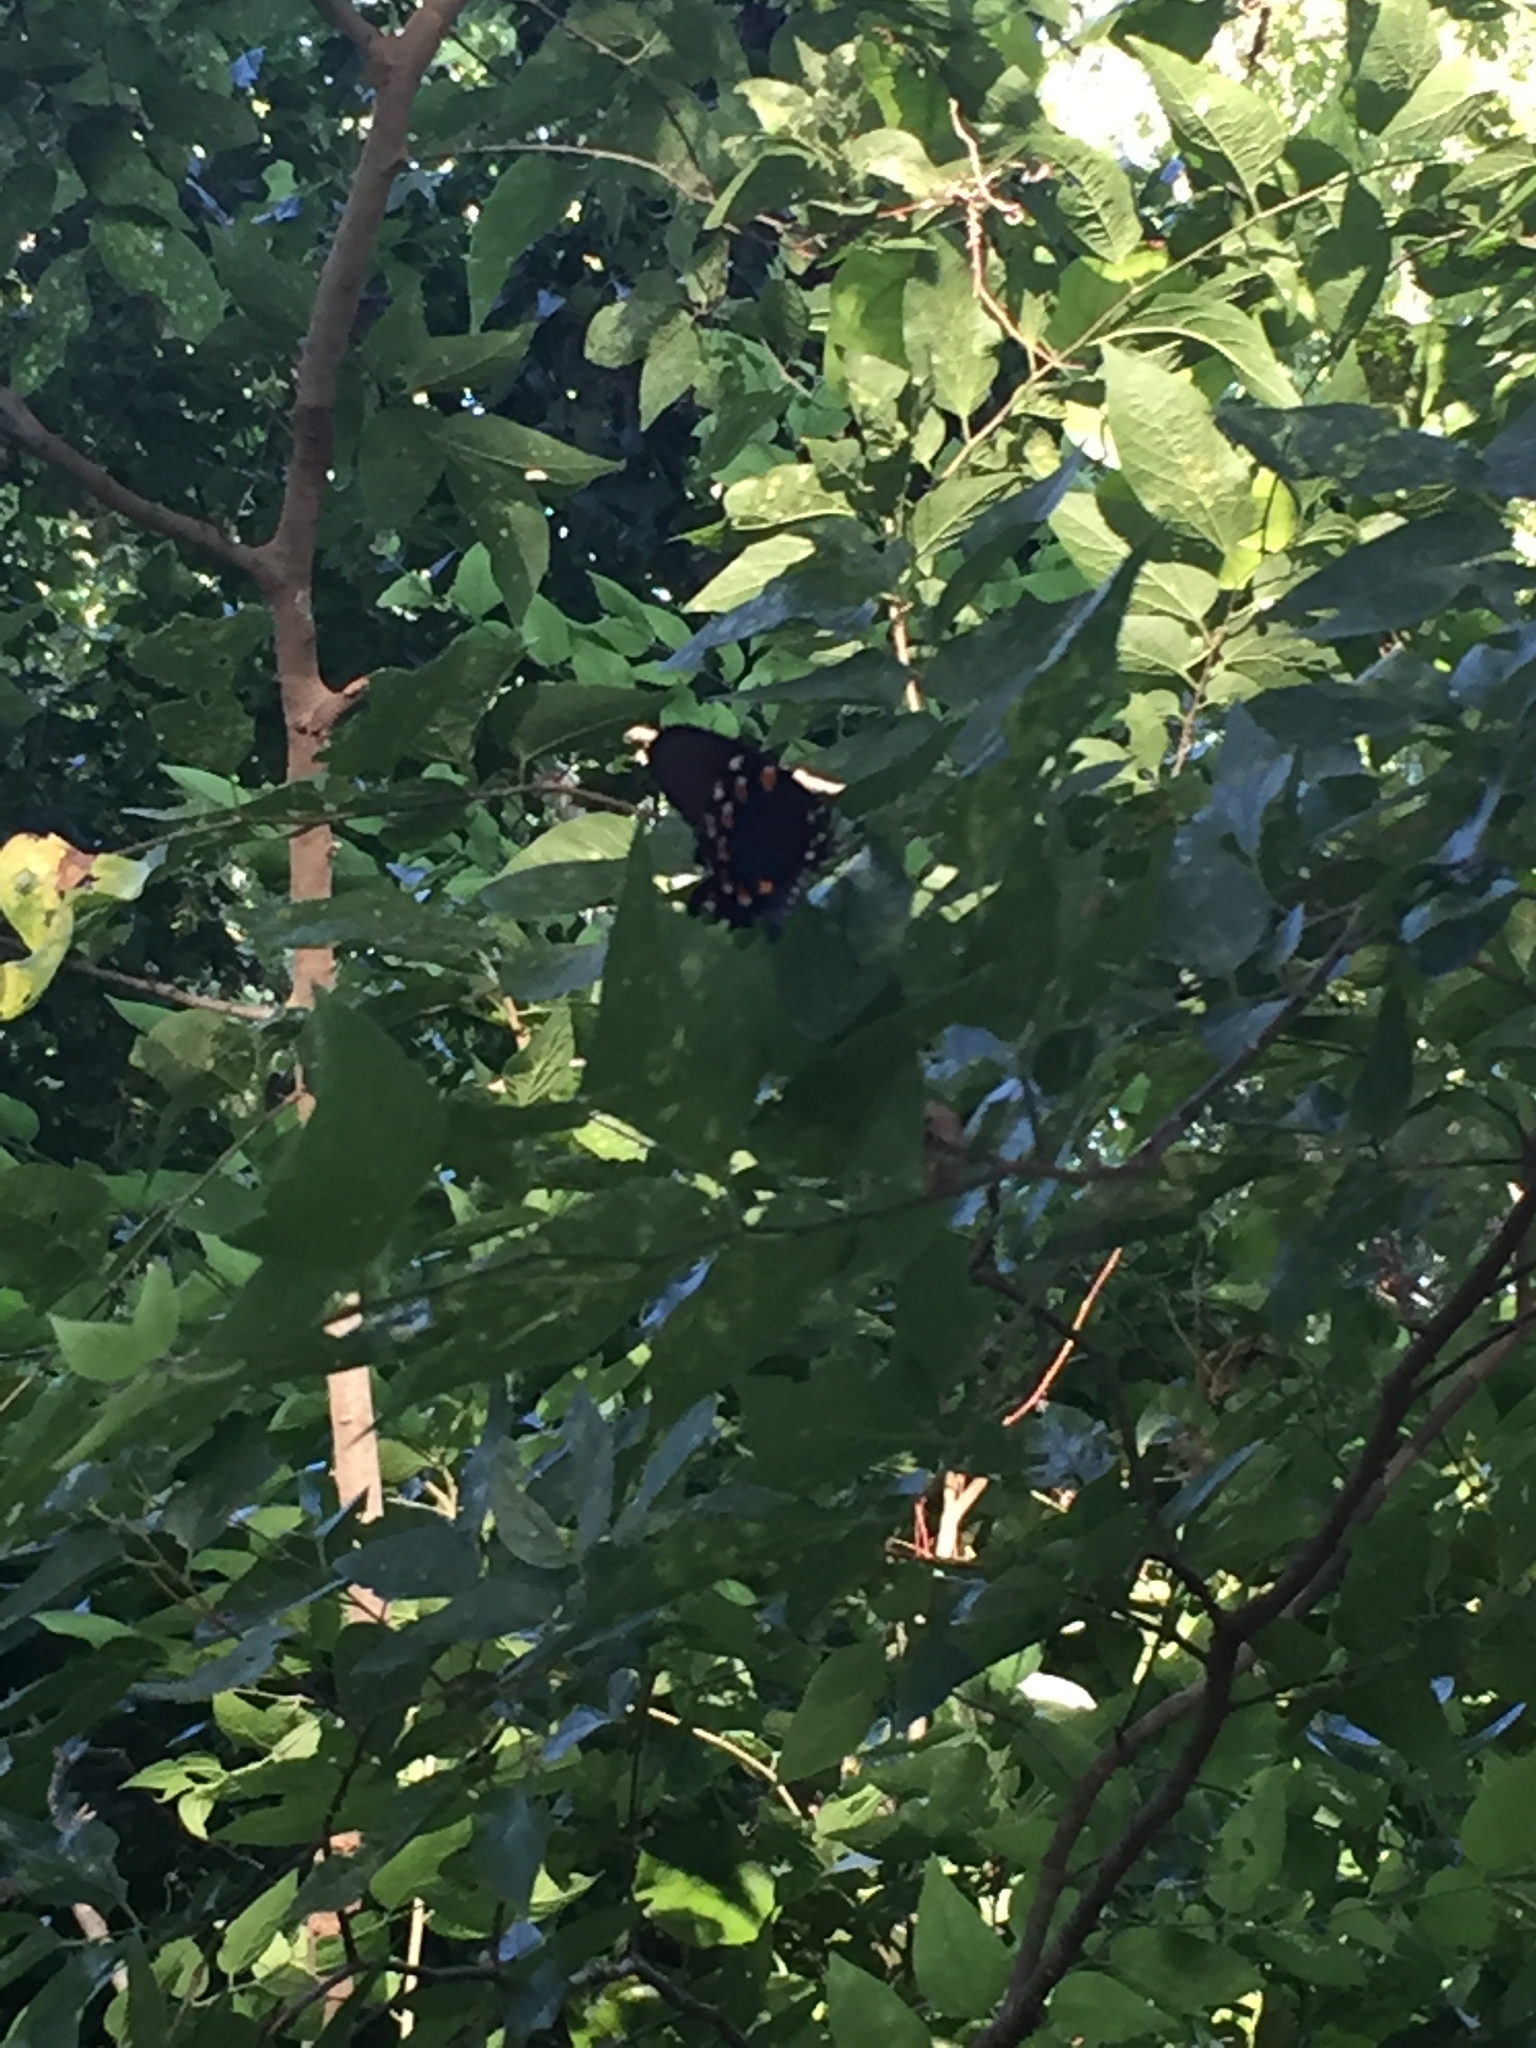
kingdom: Animalia
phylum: Arthropoda
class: Insecta
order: Lepidoptera
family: Papilionidae
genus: Battus
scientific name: Battus philenor
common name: Pipevine swallowtail
